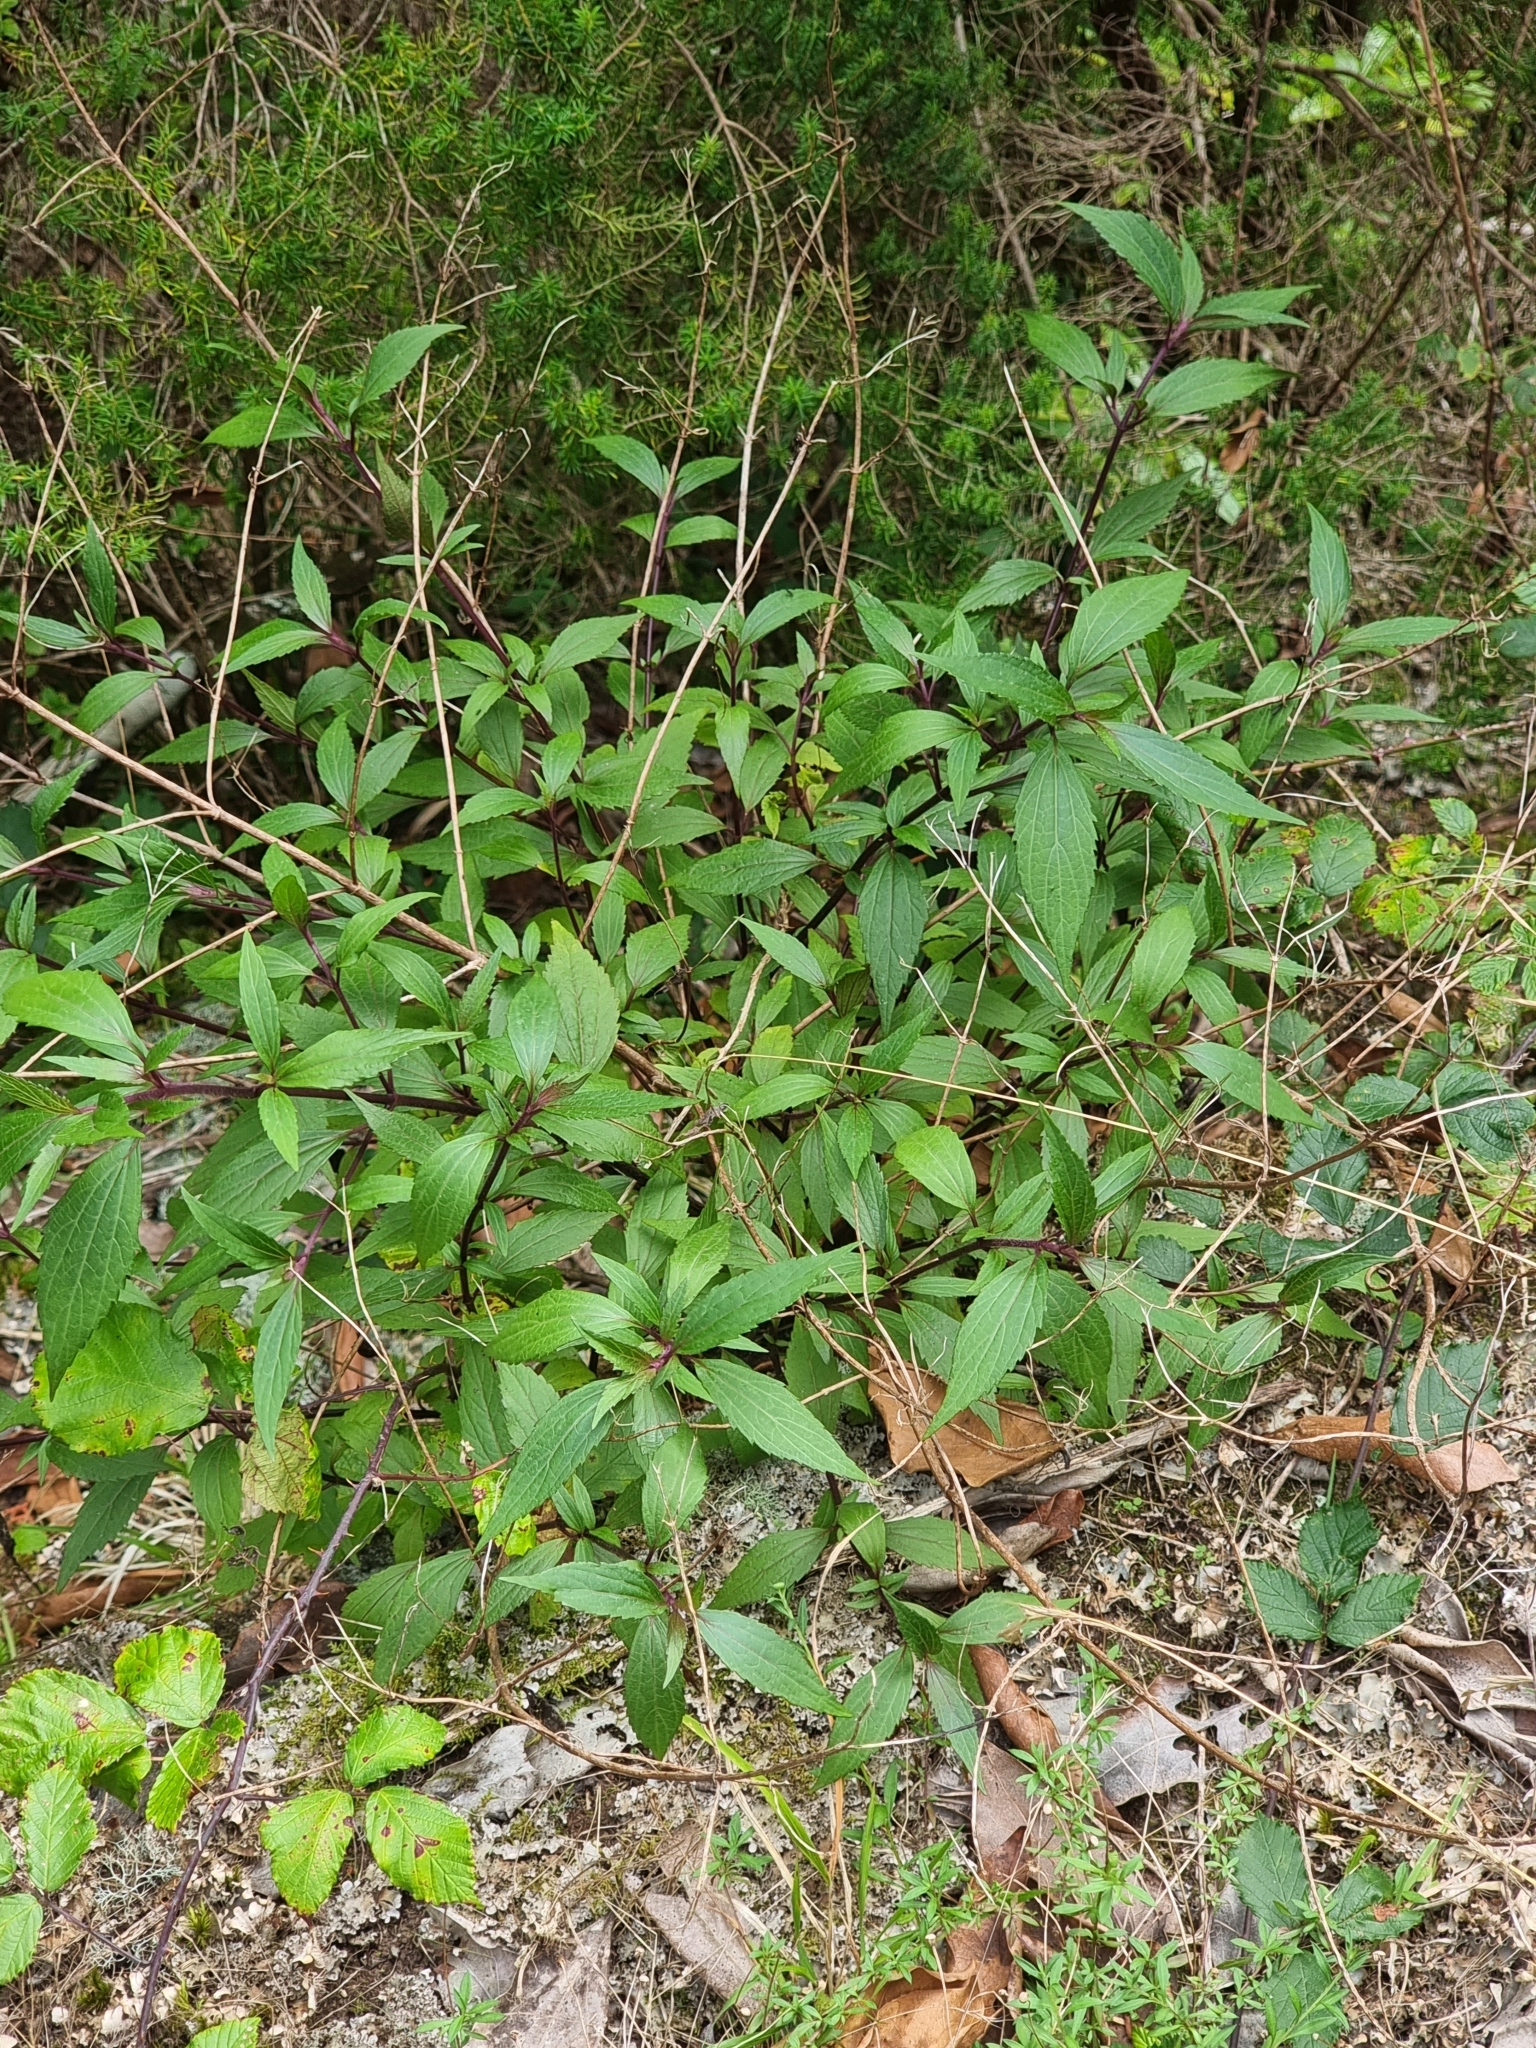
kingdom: Plantae
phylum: Tracheophyta
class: Magnoliopsida
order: Asterales
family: Asteraceae
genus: Ageratina
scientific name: Ageratina riparia
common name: Creeping croftonweed
